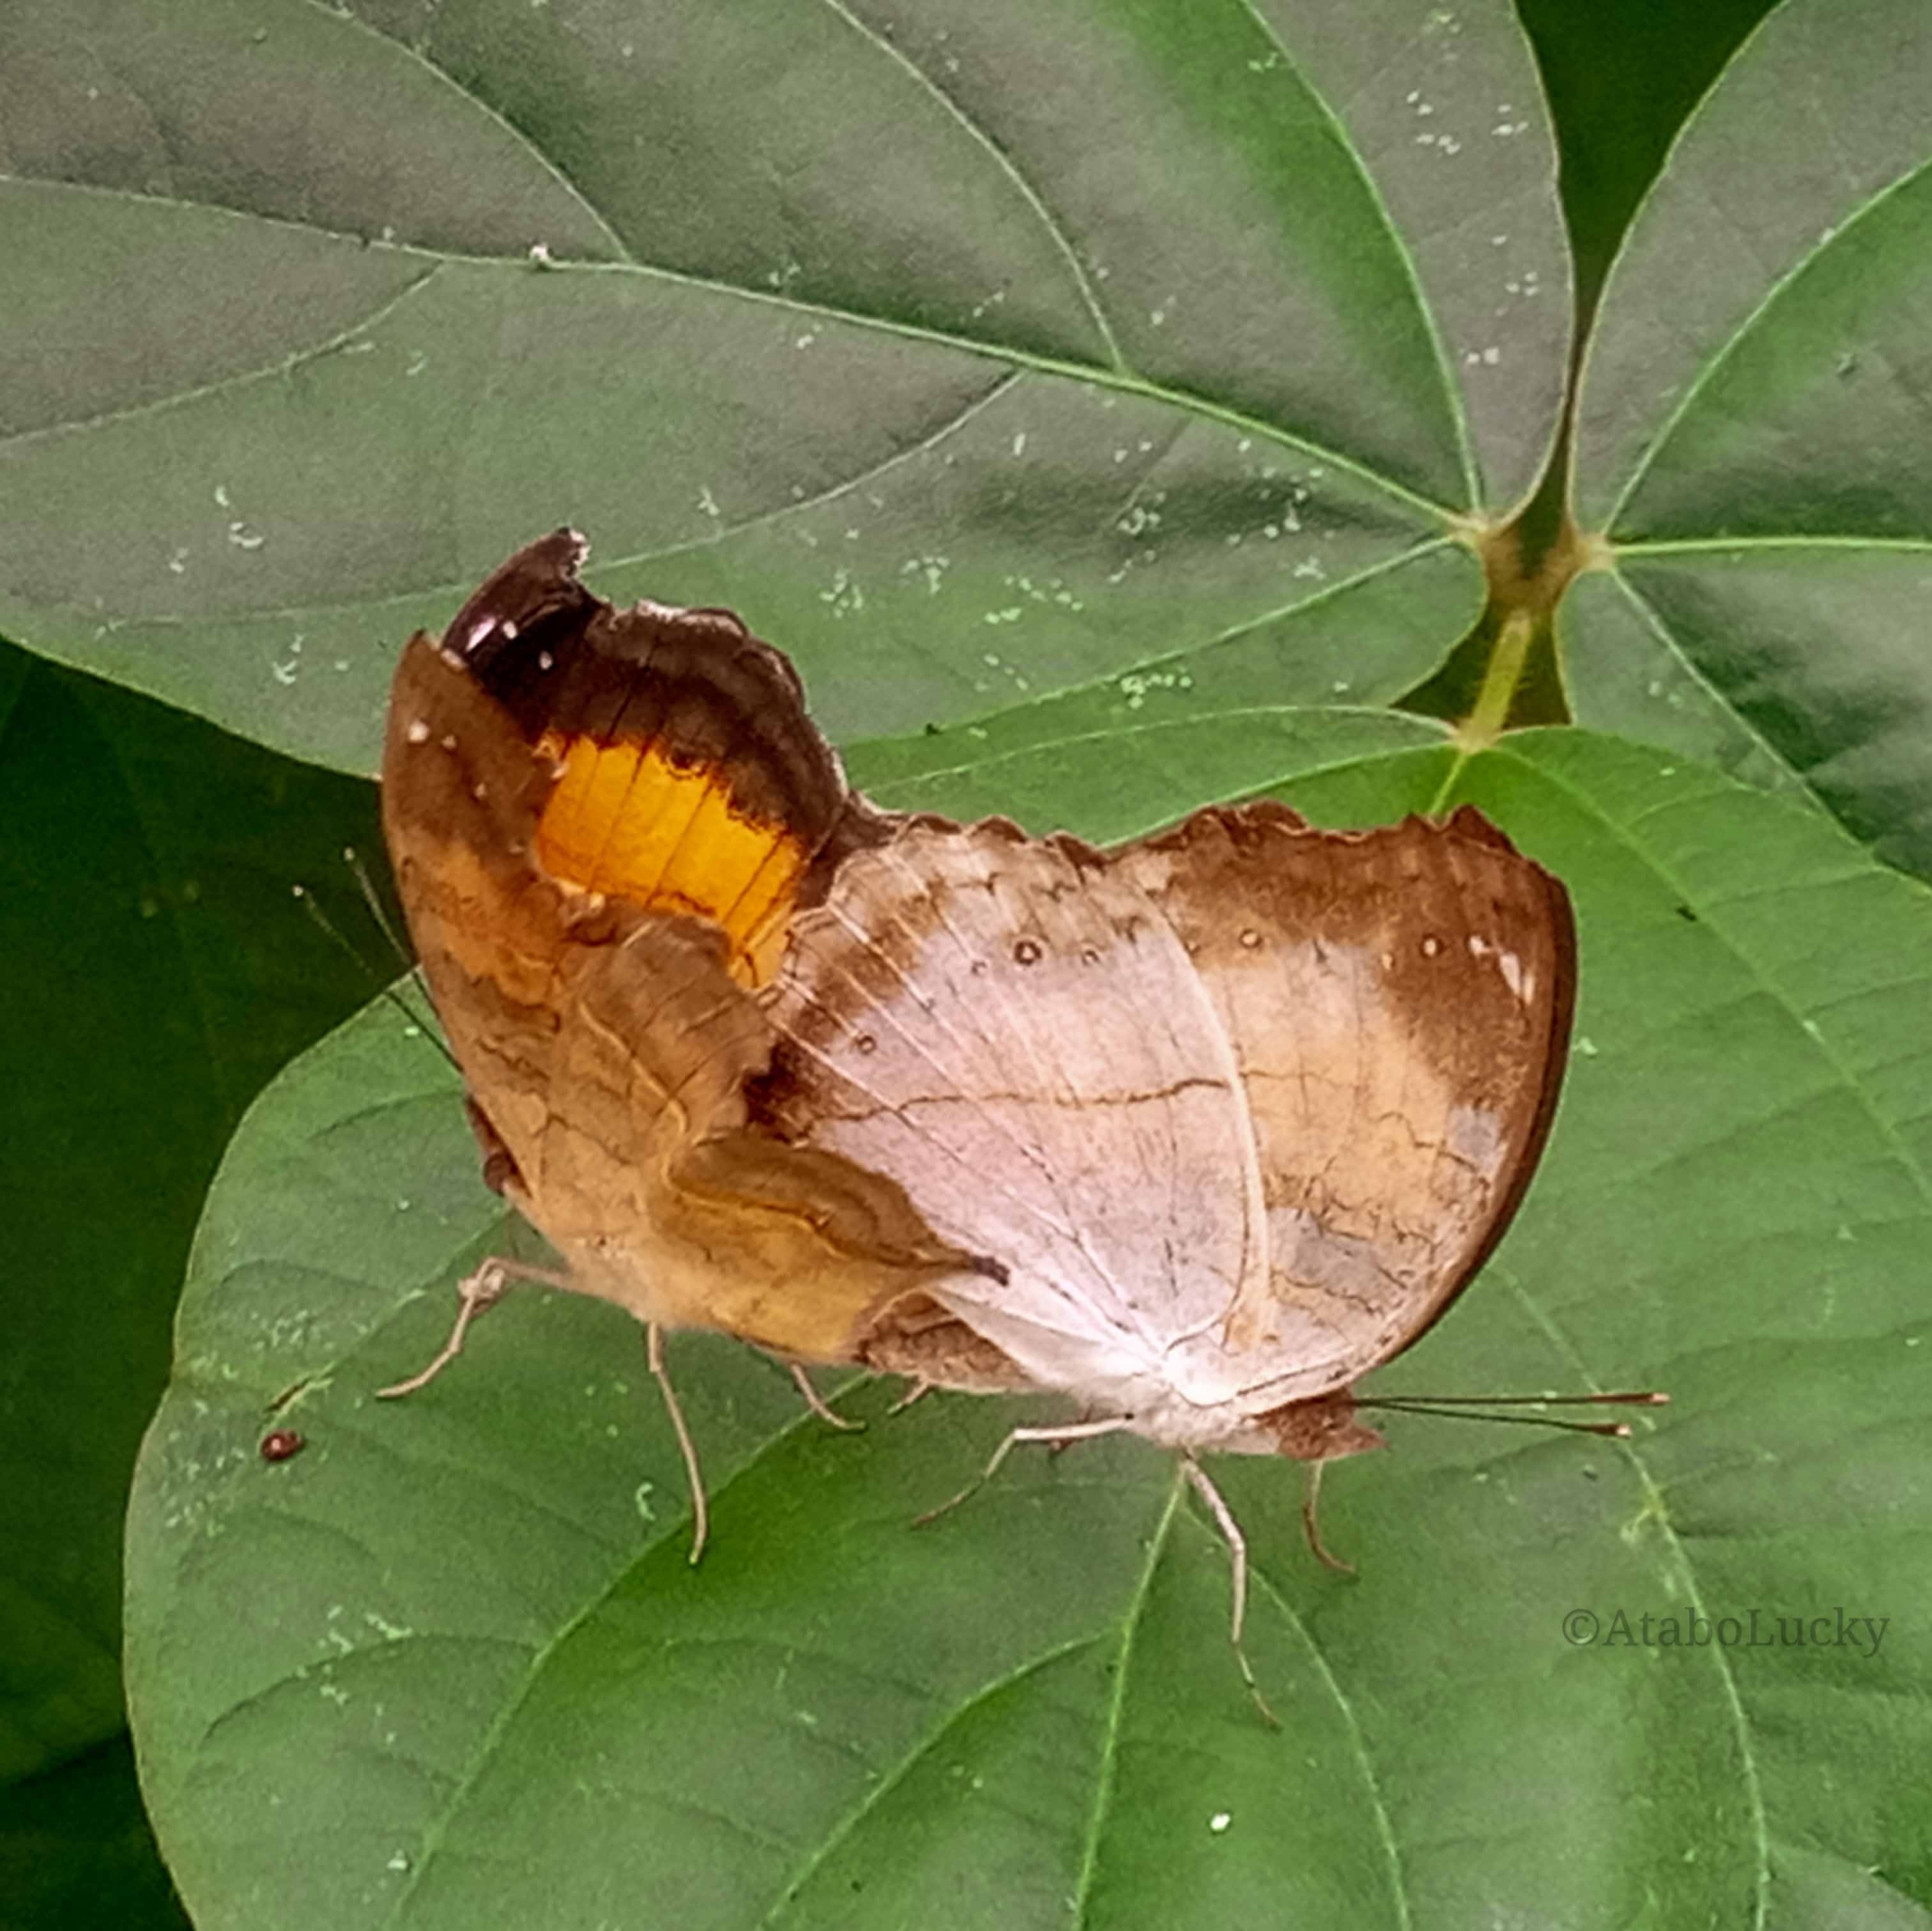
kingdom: Animalia
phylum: Arthropoda
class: Insecta
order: Lepidoptera
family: Nymphalidae
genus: Junonia
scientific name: Junonia terea
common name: Soldier pansy
